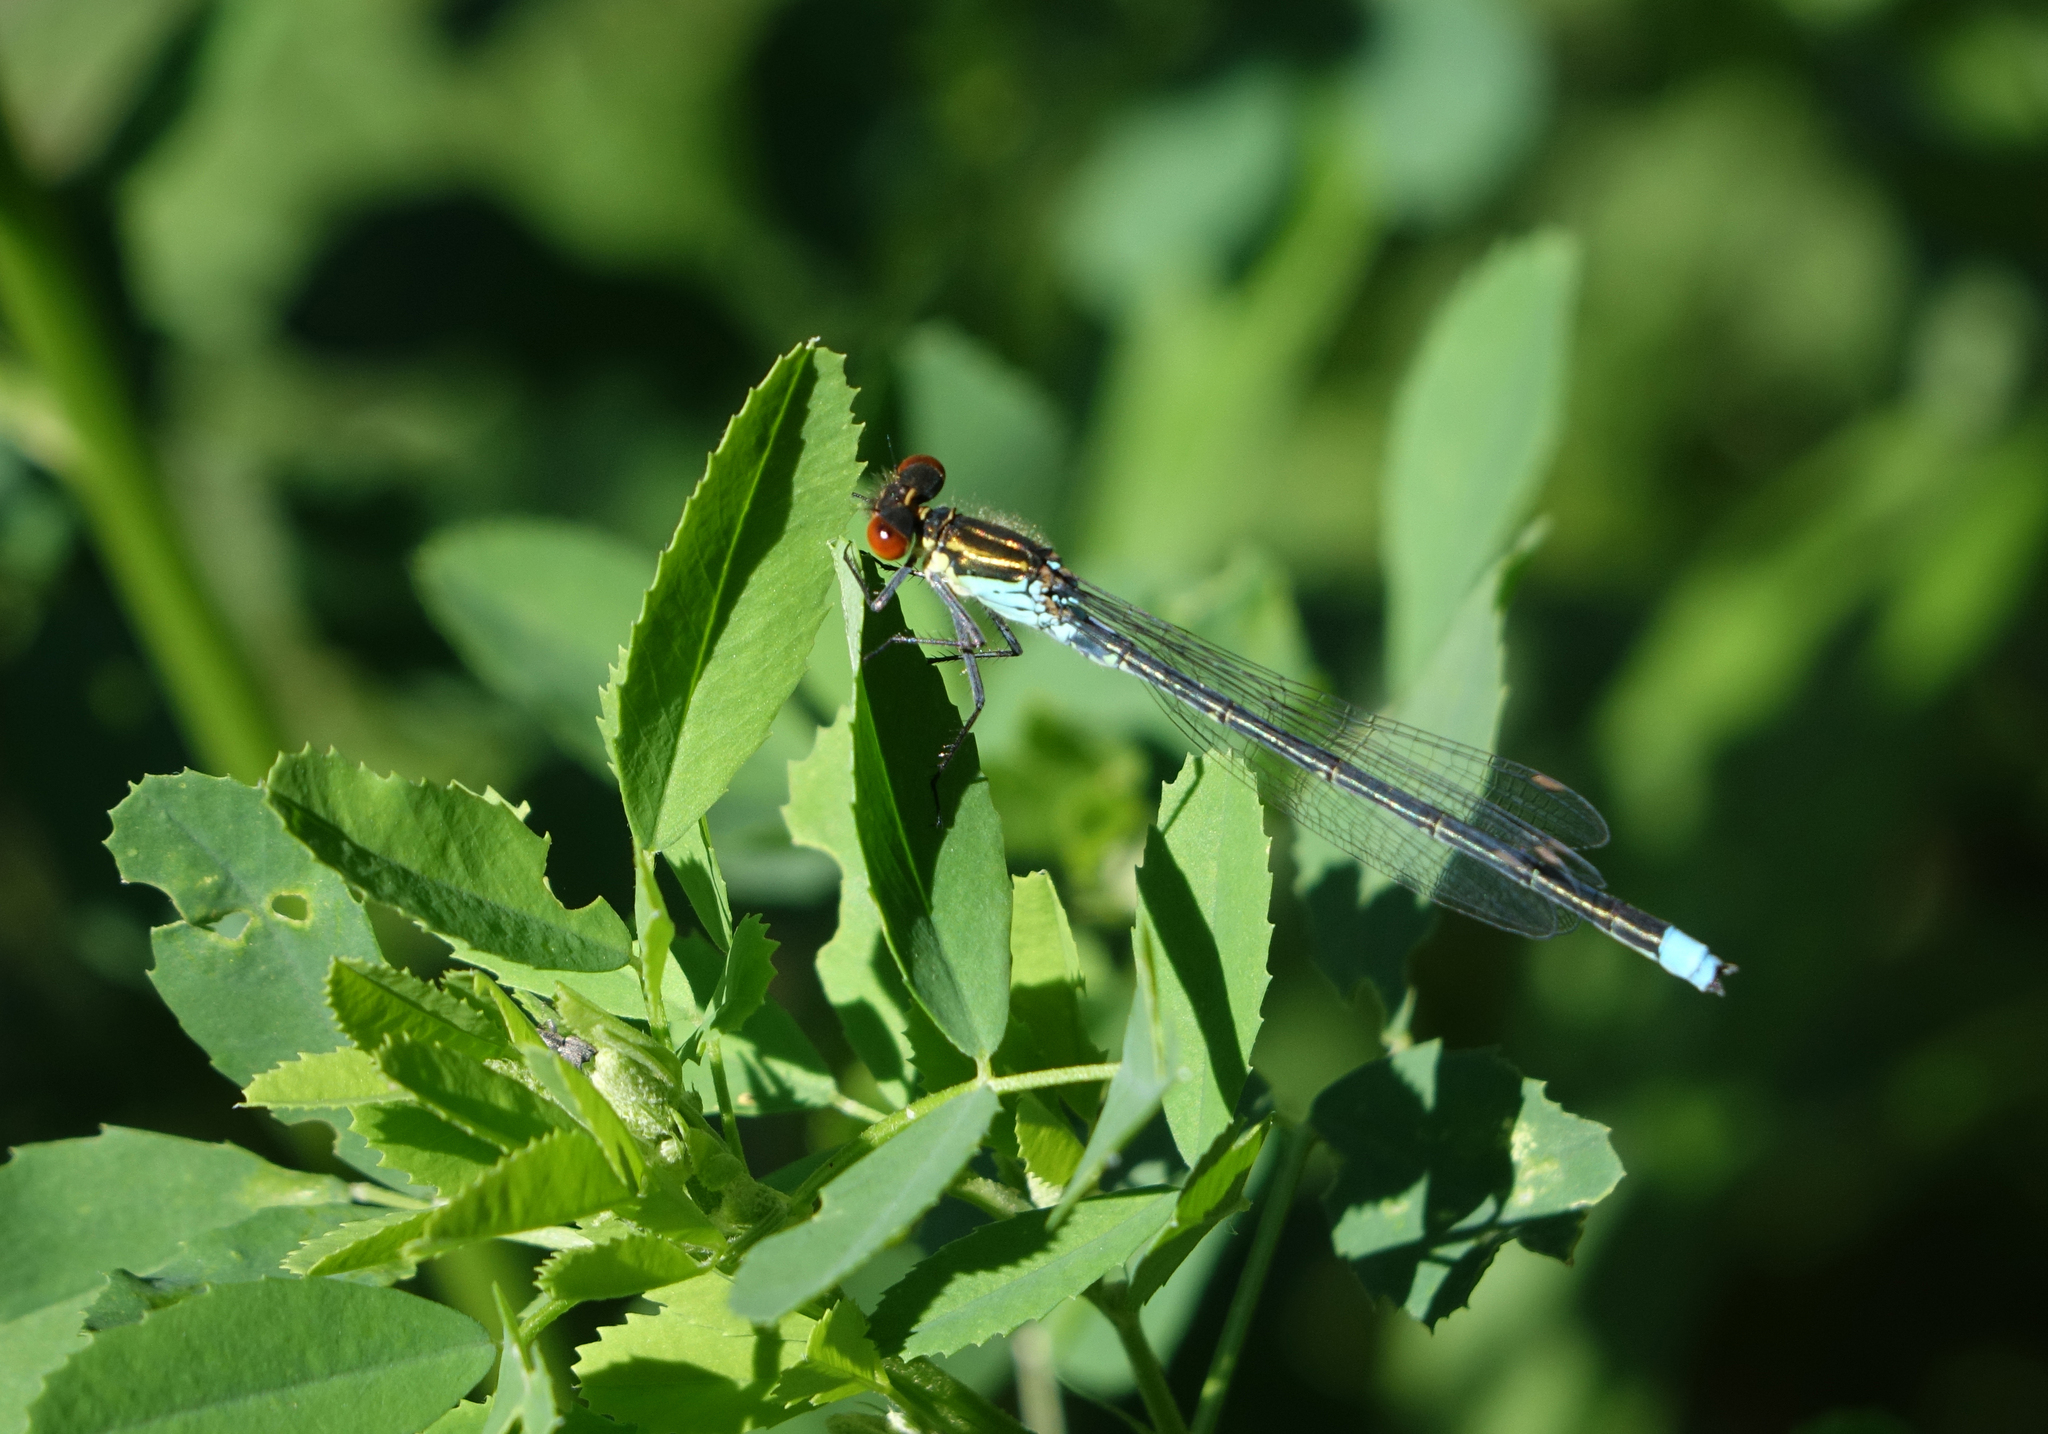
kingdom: Animalia
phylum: Arthropoda
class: Insecta
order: Odonata
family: Coenagrionidae
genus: Erythromma
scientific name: Erythromma najas
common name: Red-eyed damselfly
